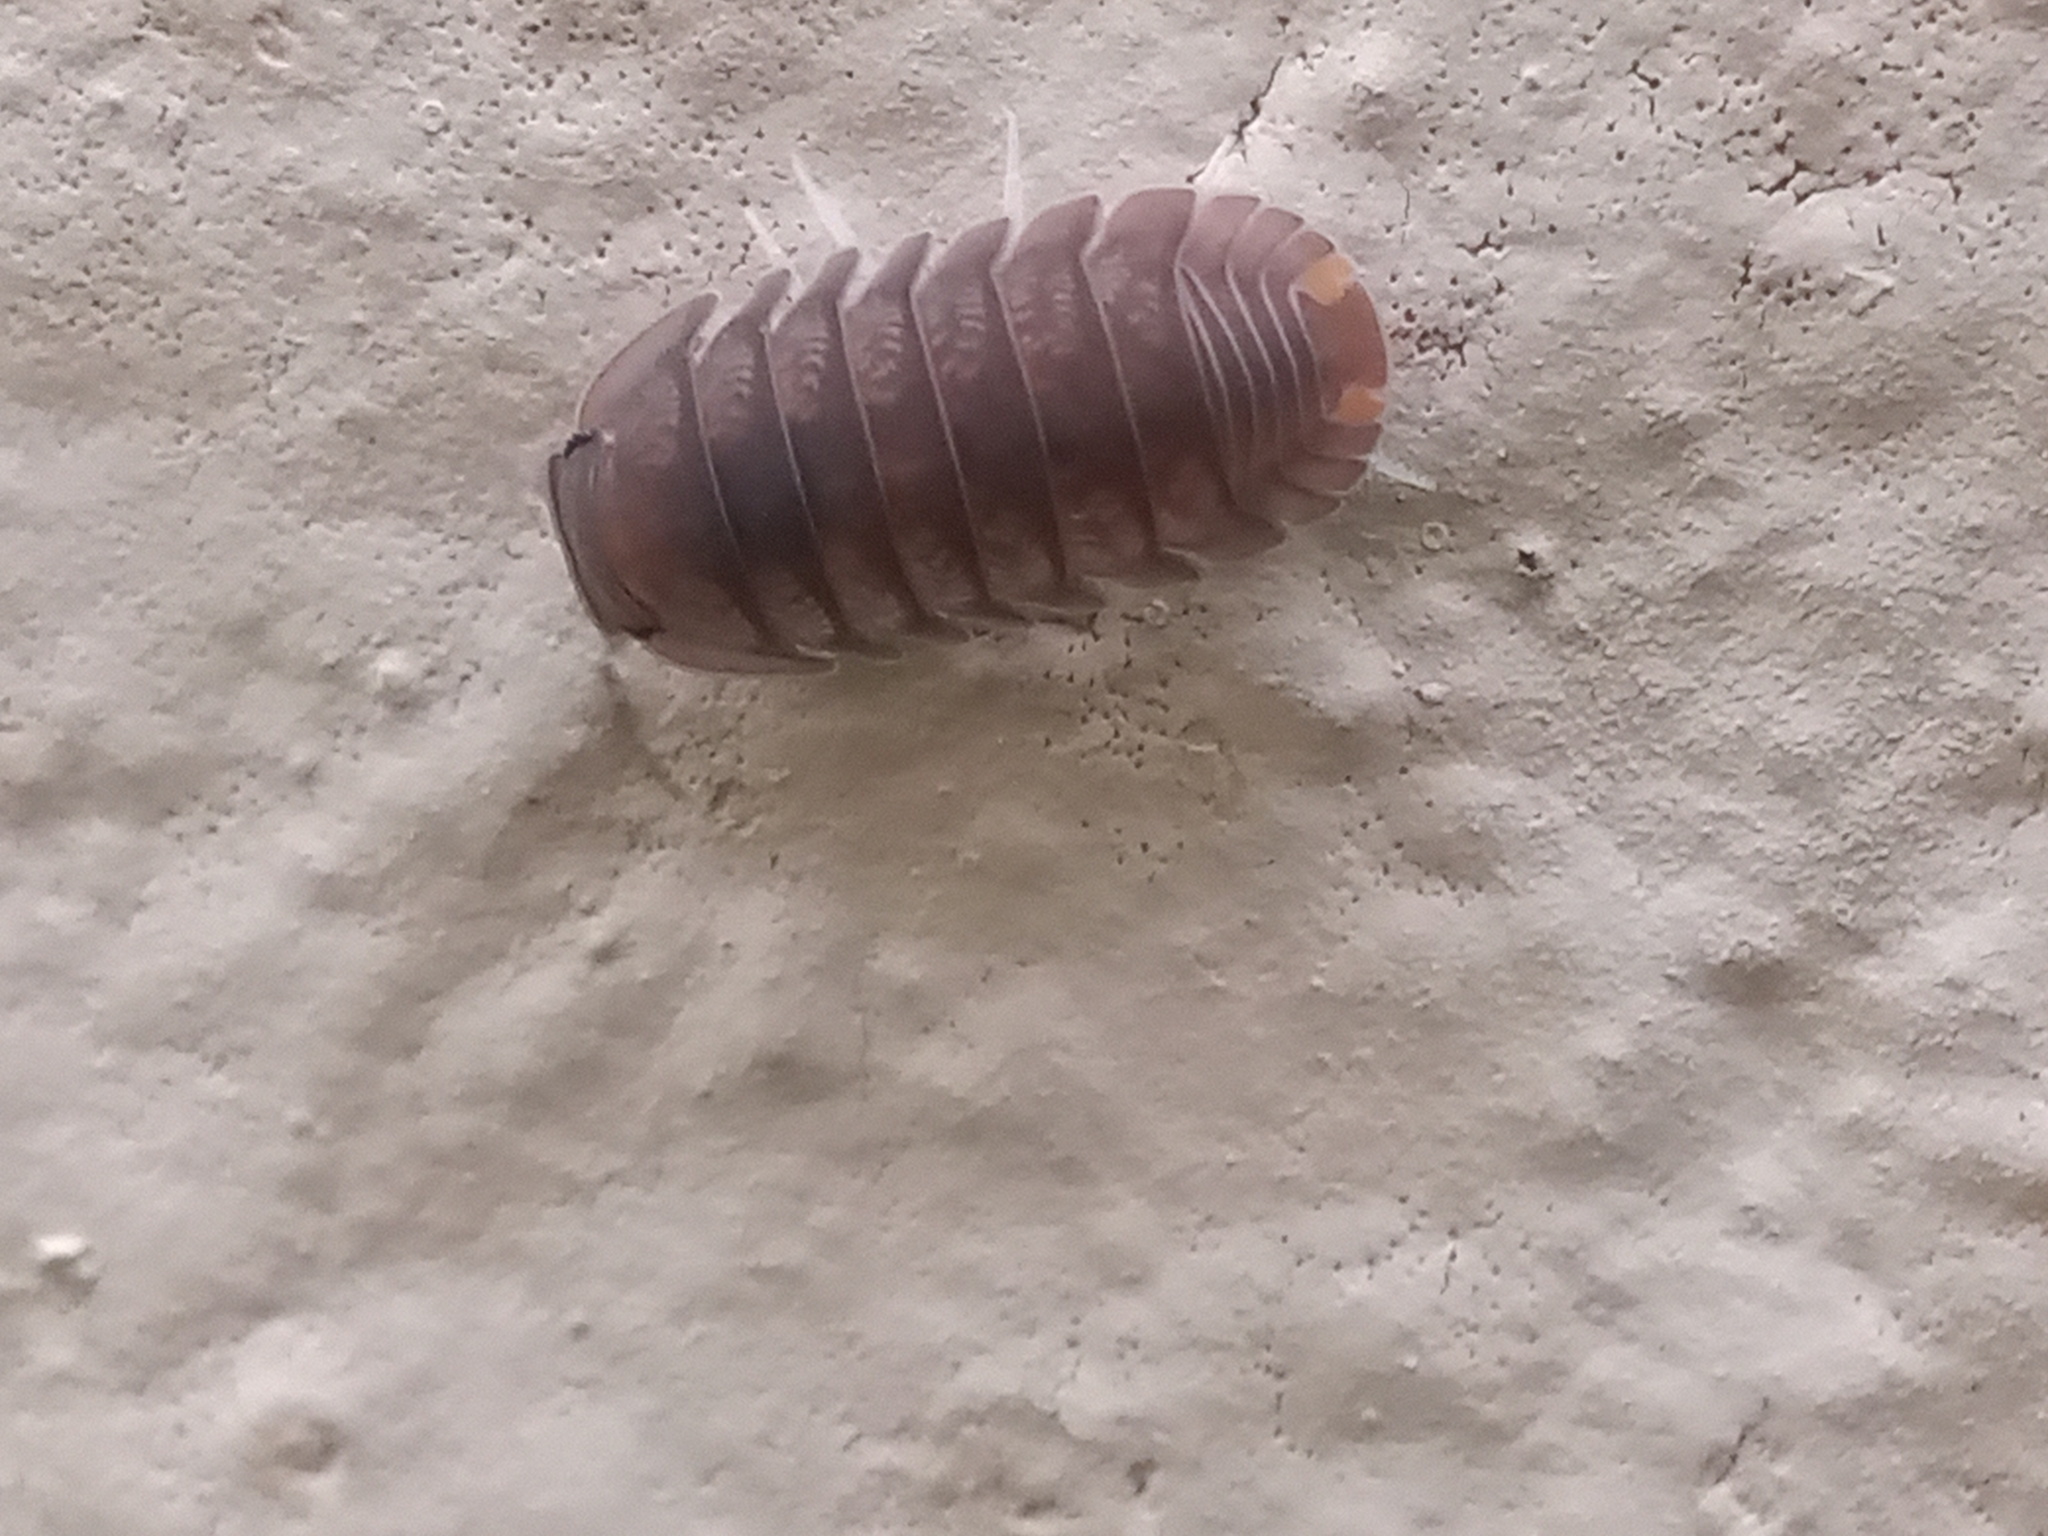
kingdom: Animalia
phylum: Arthropoda
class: Malacostraca
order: Isopoda
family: Armadillidae
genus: Cubaris
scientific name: Cubaris murina
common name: Pillbug
